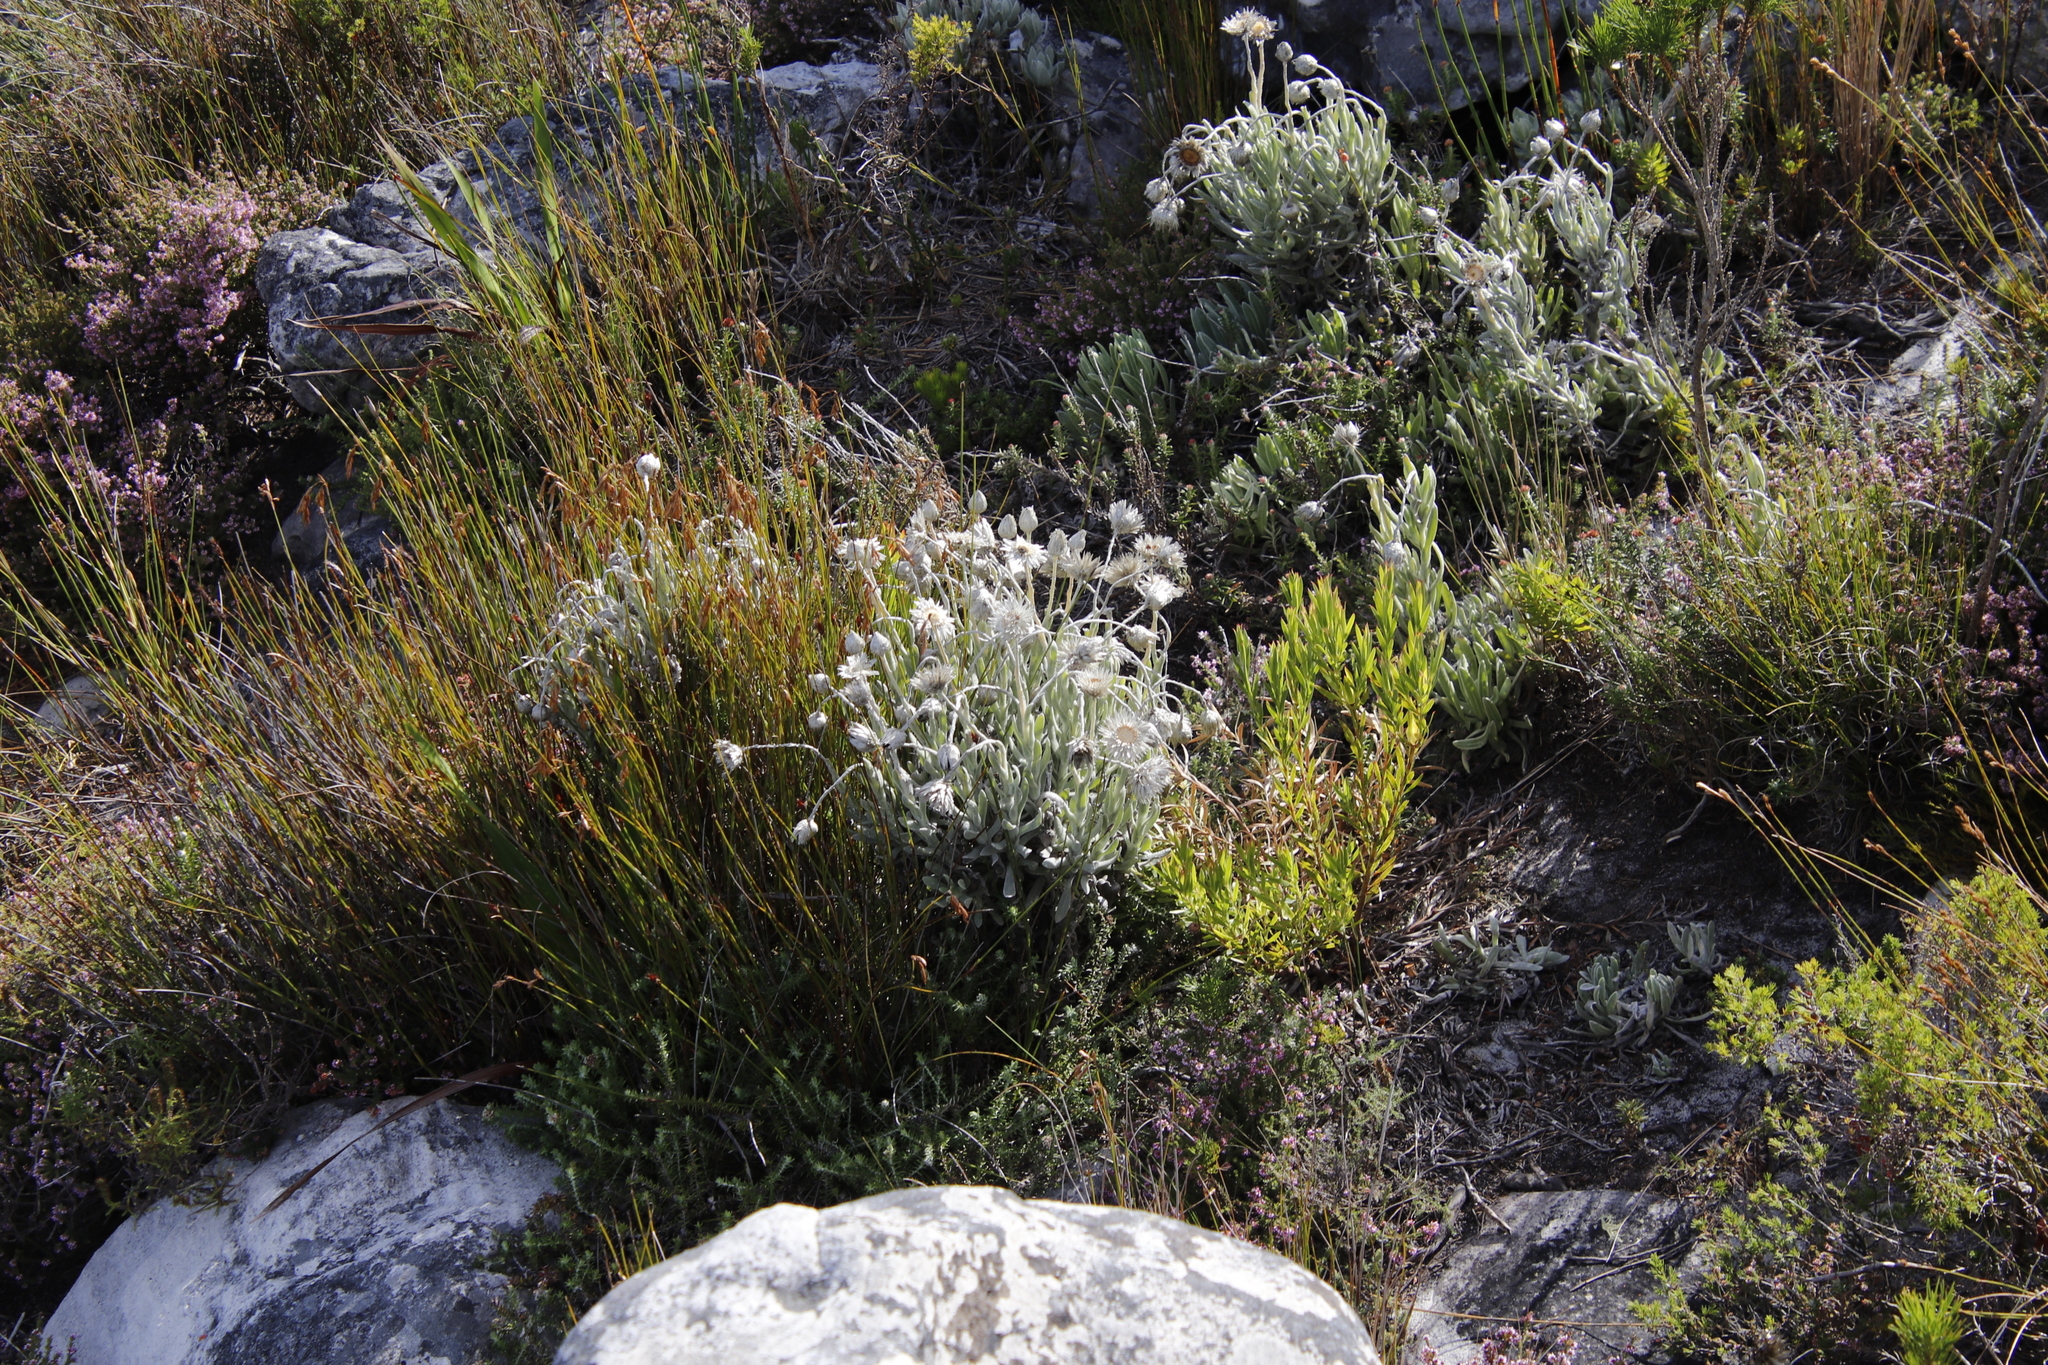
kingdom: Plantae
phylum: Tracheophyta
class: Magnoliopsida
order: Asterales
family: Asteraceae
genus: Syncarpha
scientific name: Syncarpha vestita
